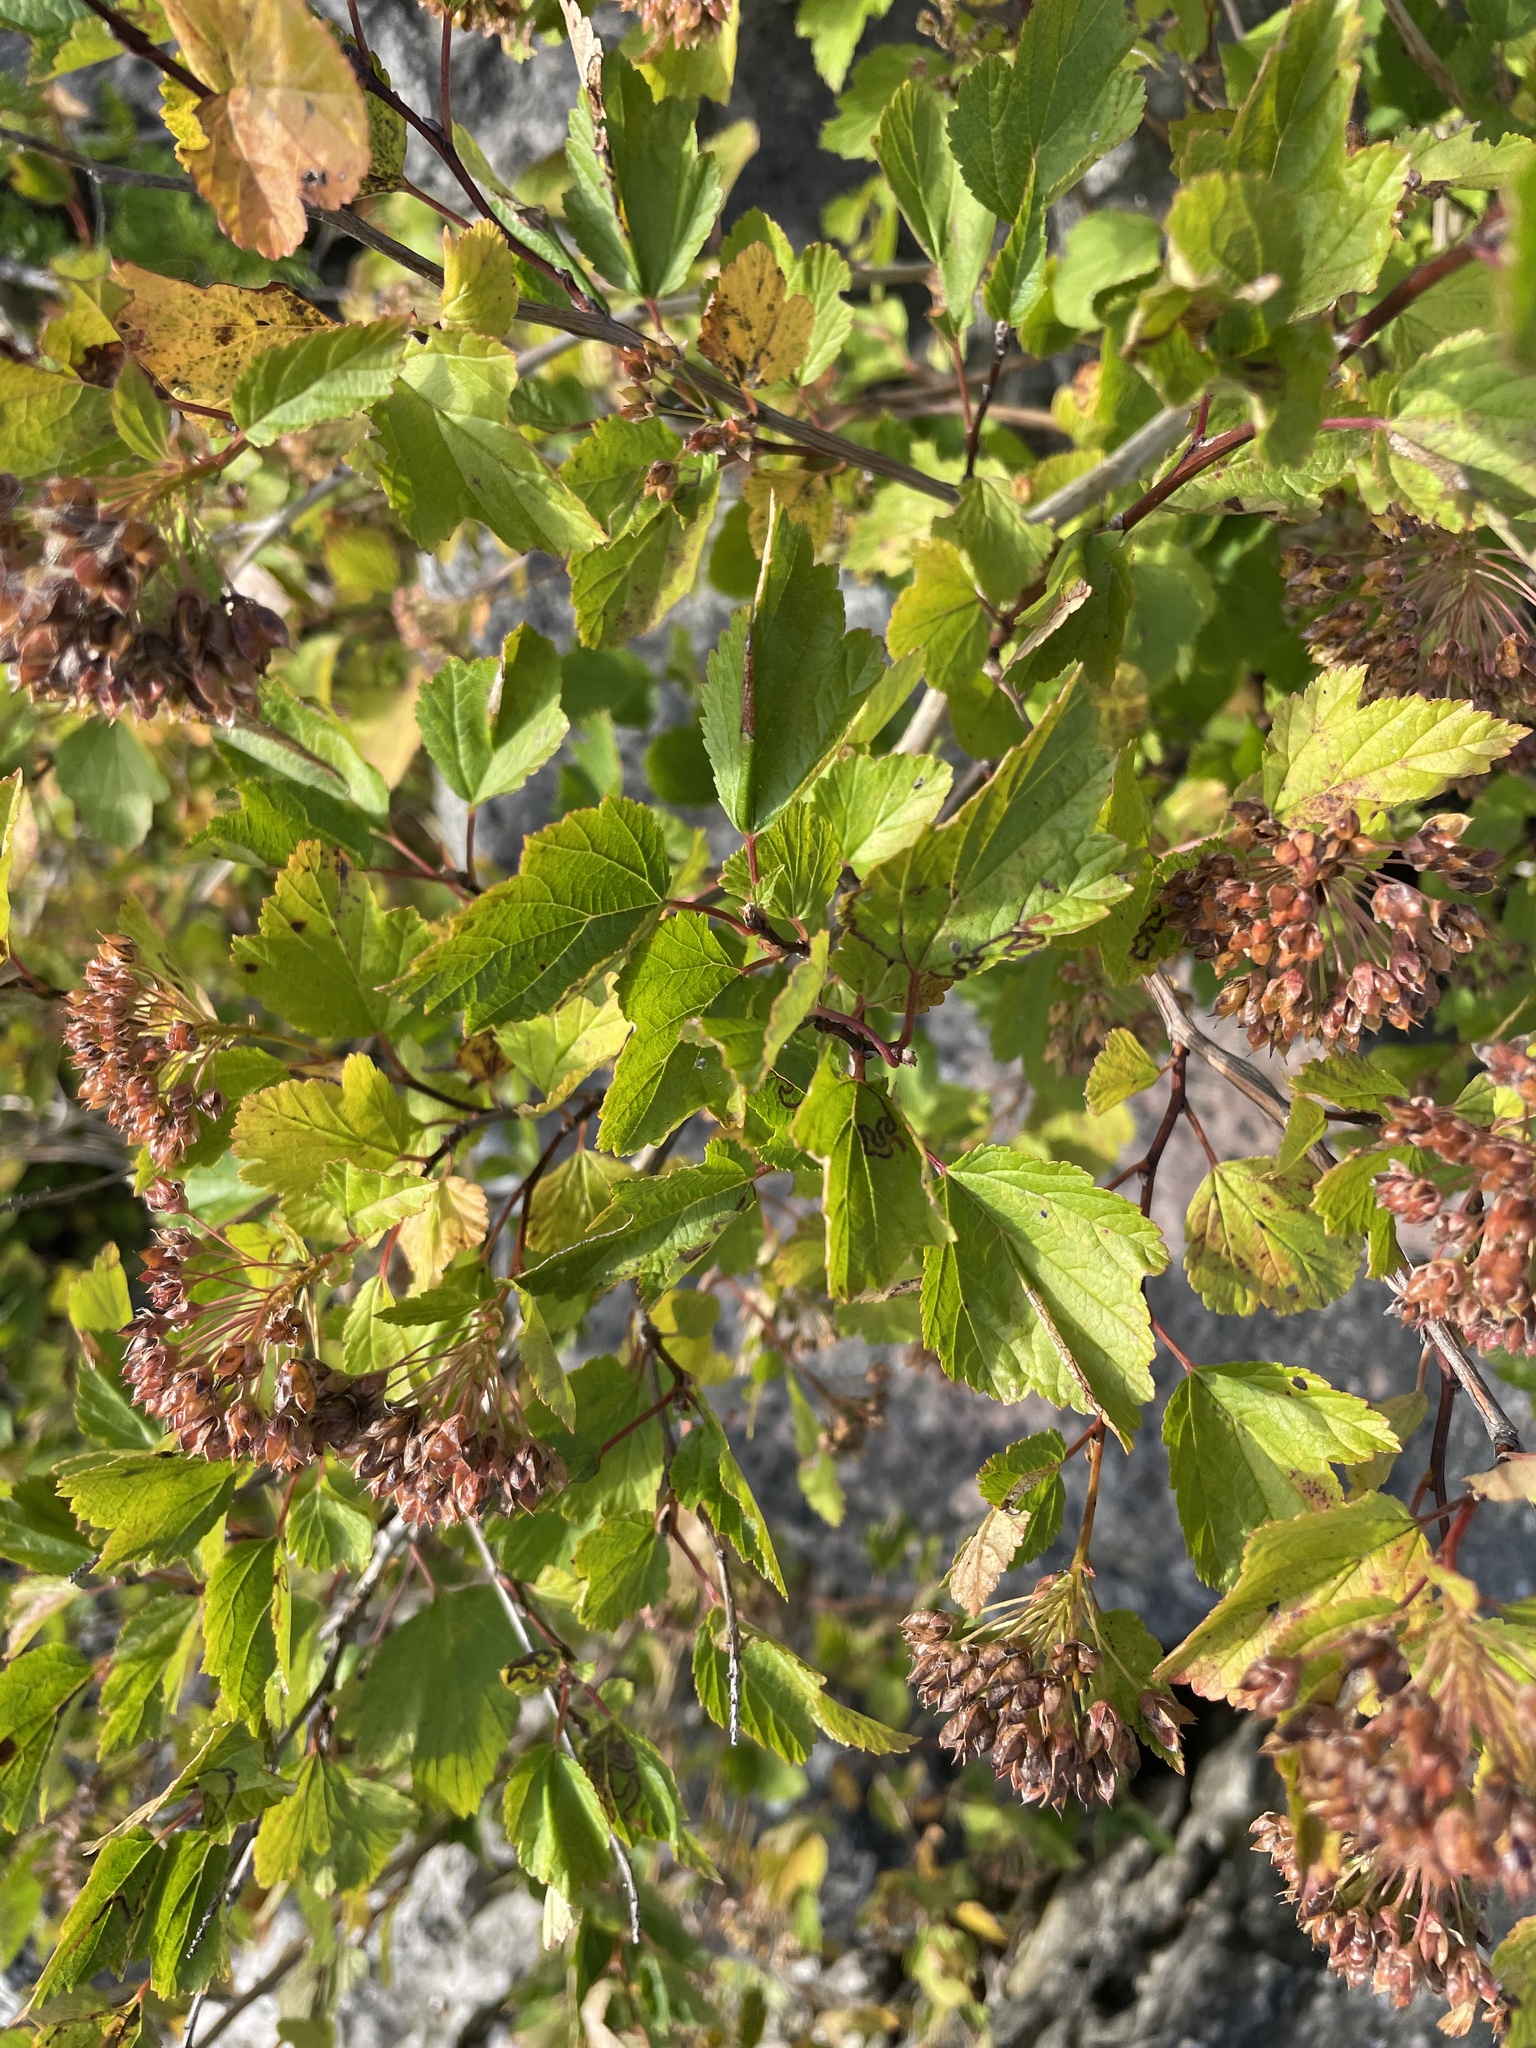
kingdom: Plantae
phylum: Tracheophyta
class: Magnoliopsida
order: Rosales
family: Rosaceae
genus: Physocarpus
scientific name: Physocarpus opulifolius
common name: Ninebark
